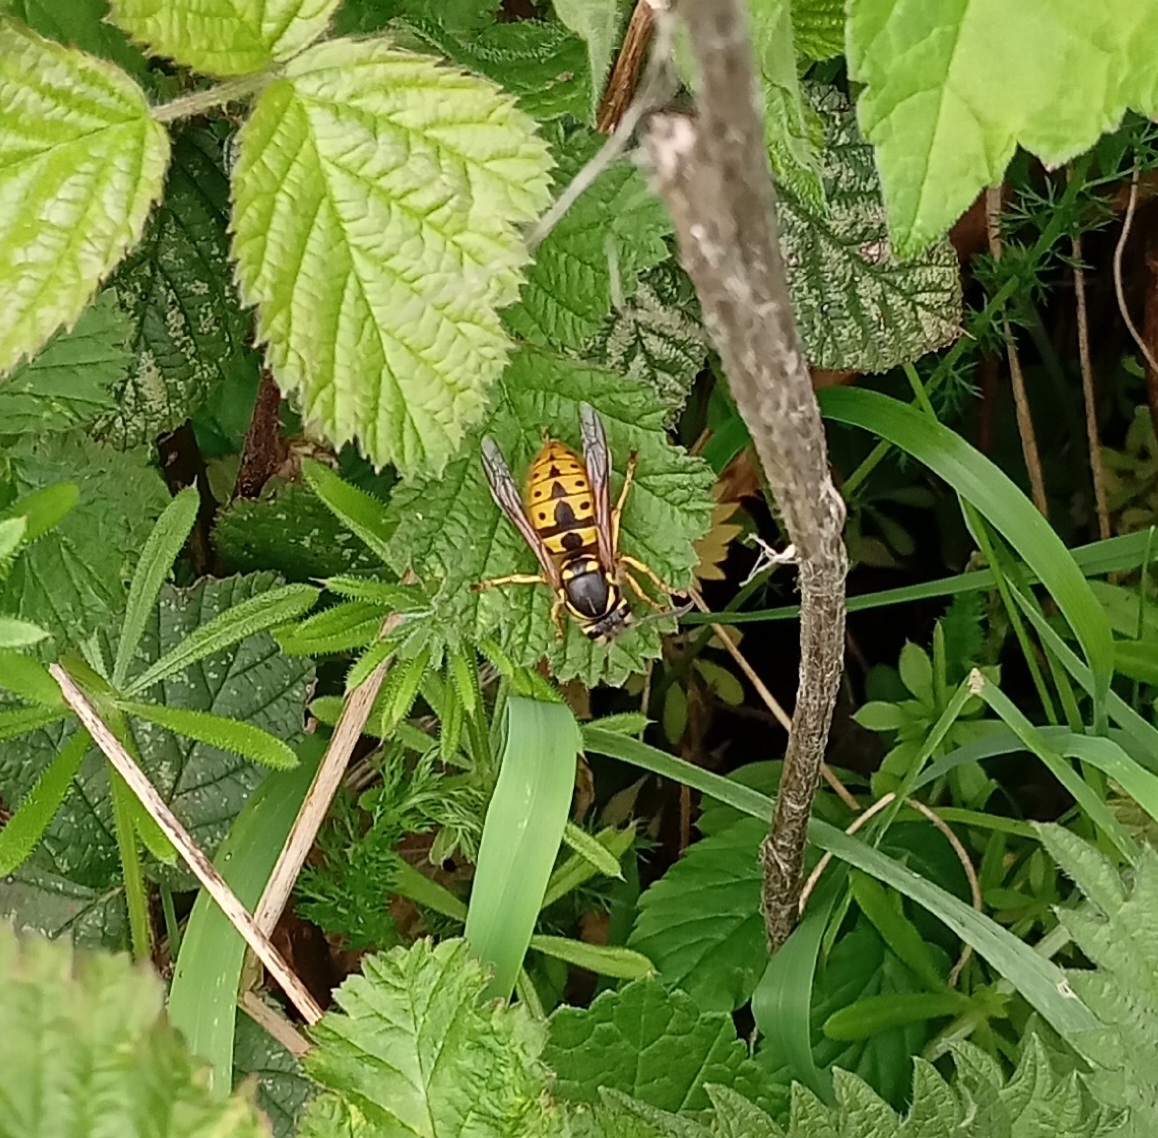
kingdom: Animalia
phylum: Arthropoda
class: Insecta
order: Hymenoptera
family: Vespidae
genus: Vespula
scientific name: Vespula germanica
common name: German wasp
